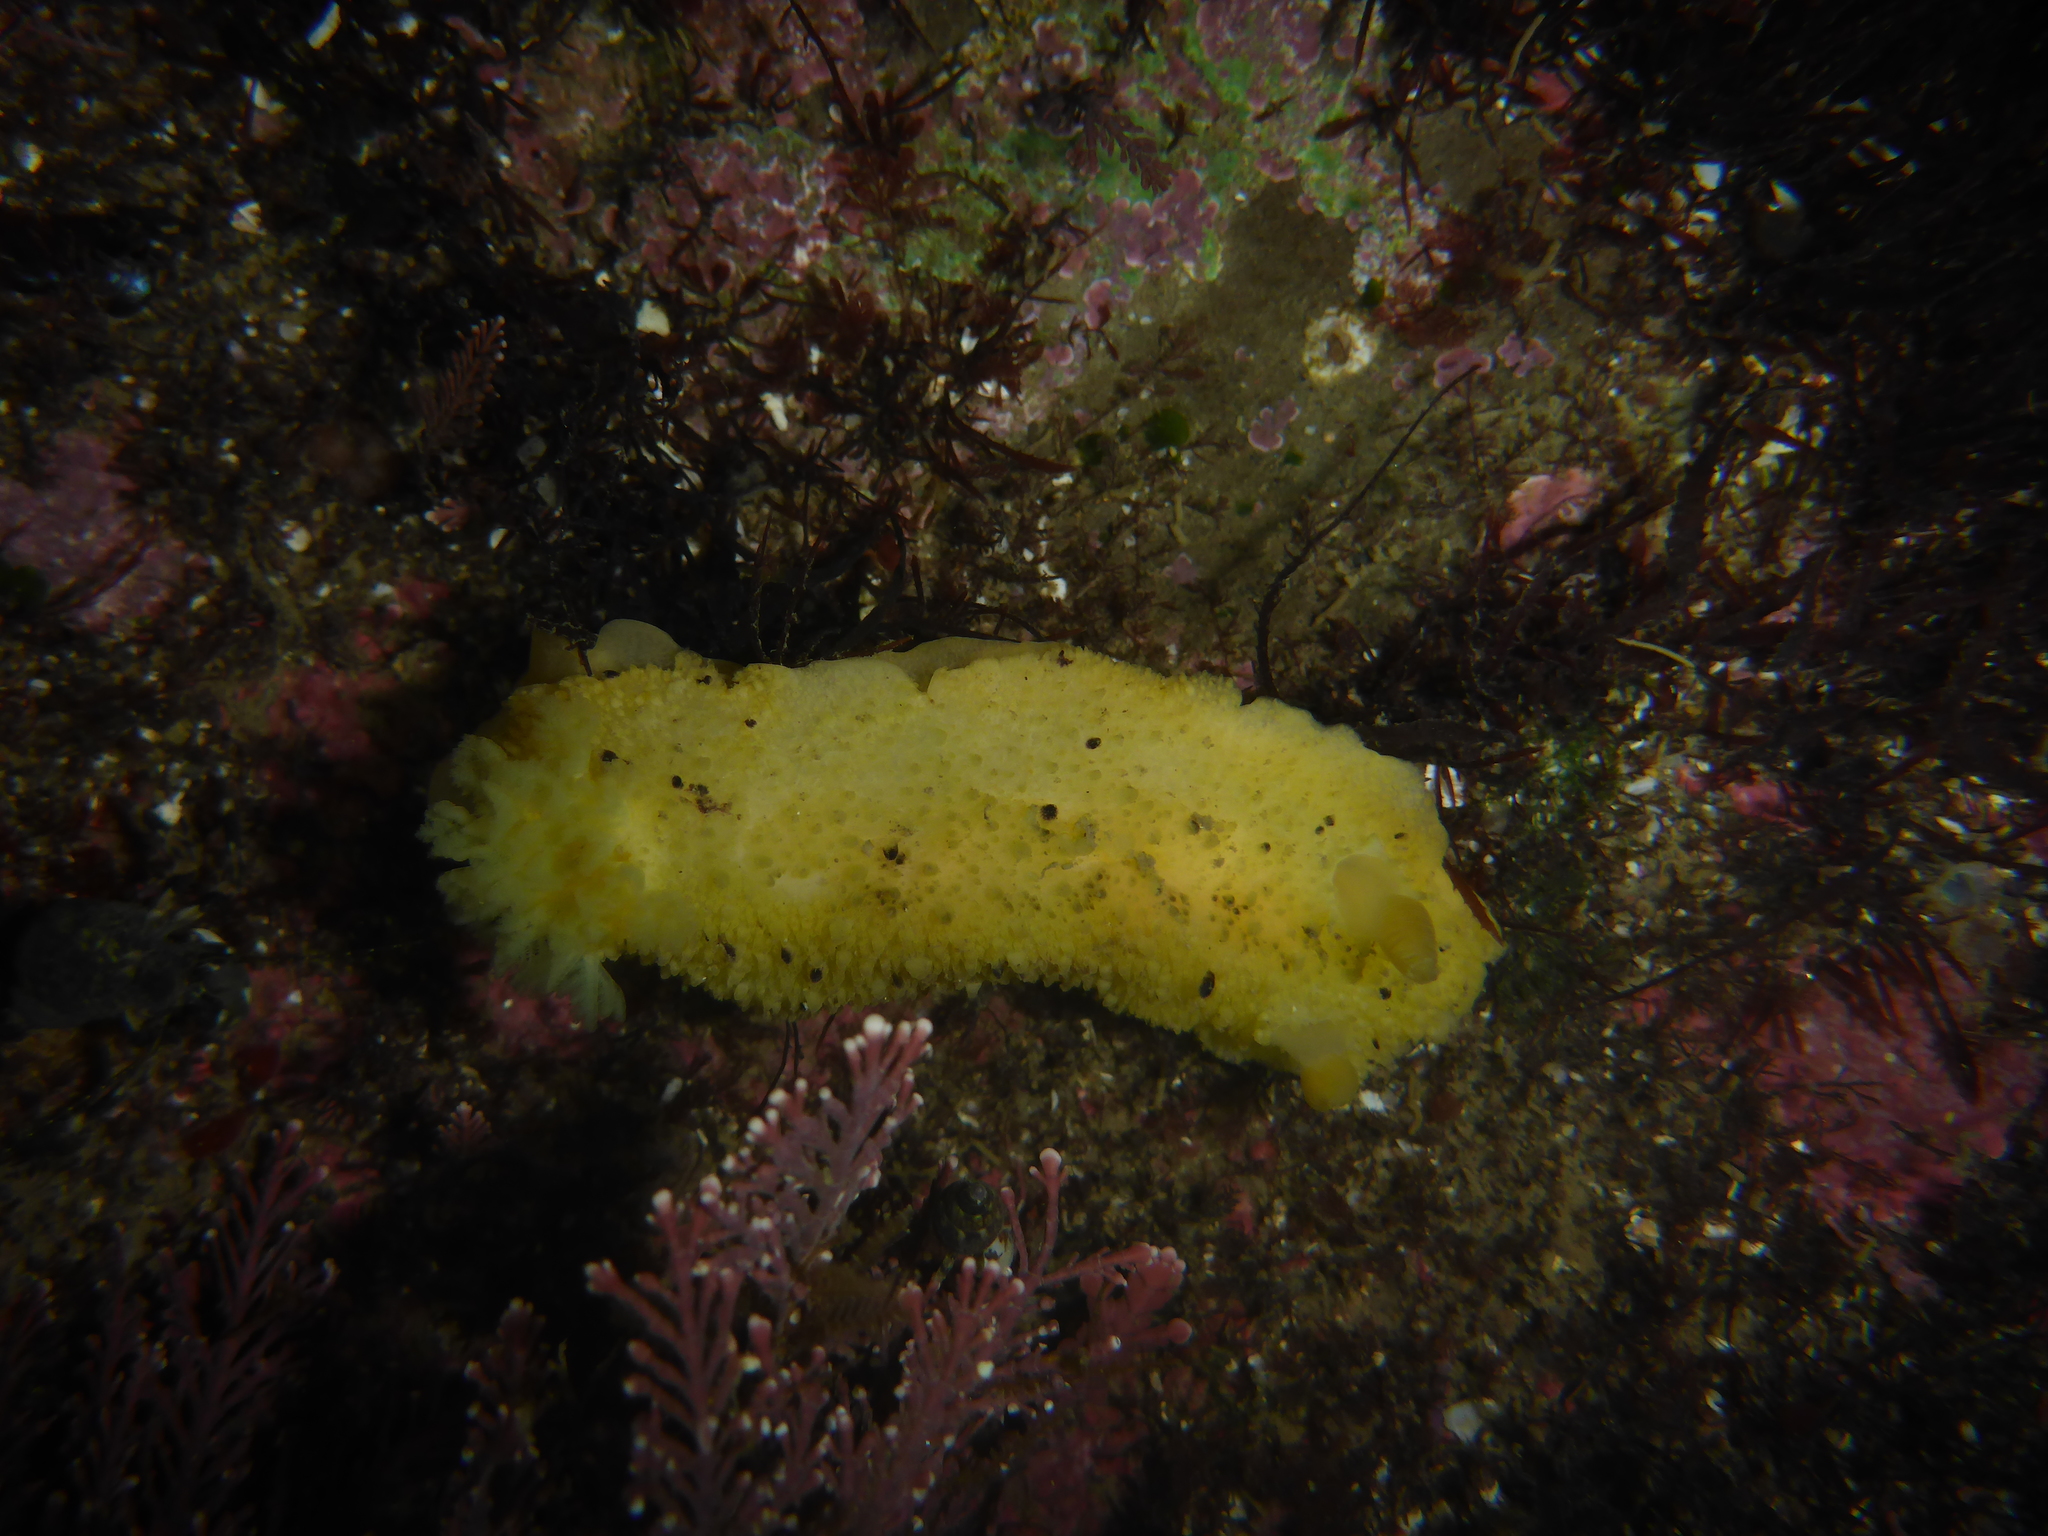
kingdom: Animalia
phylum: Mollusca
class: Gastropoda
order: Nudibranchia
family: Dorididae
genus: Doris
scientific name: Doris montereyensis
